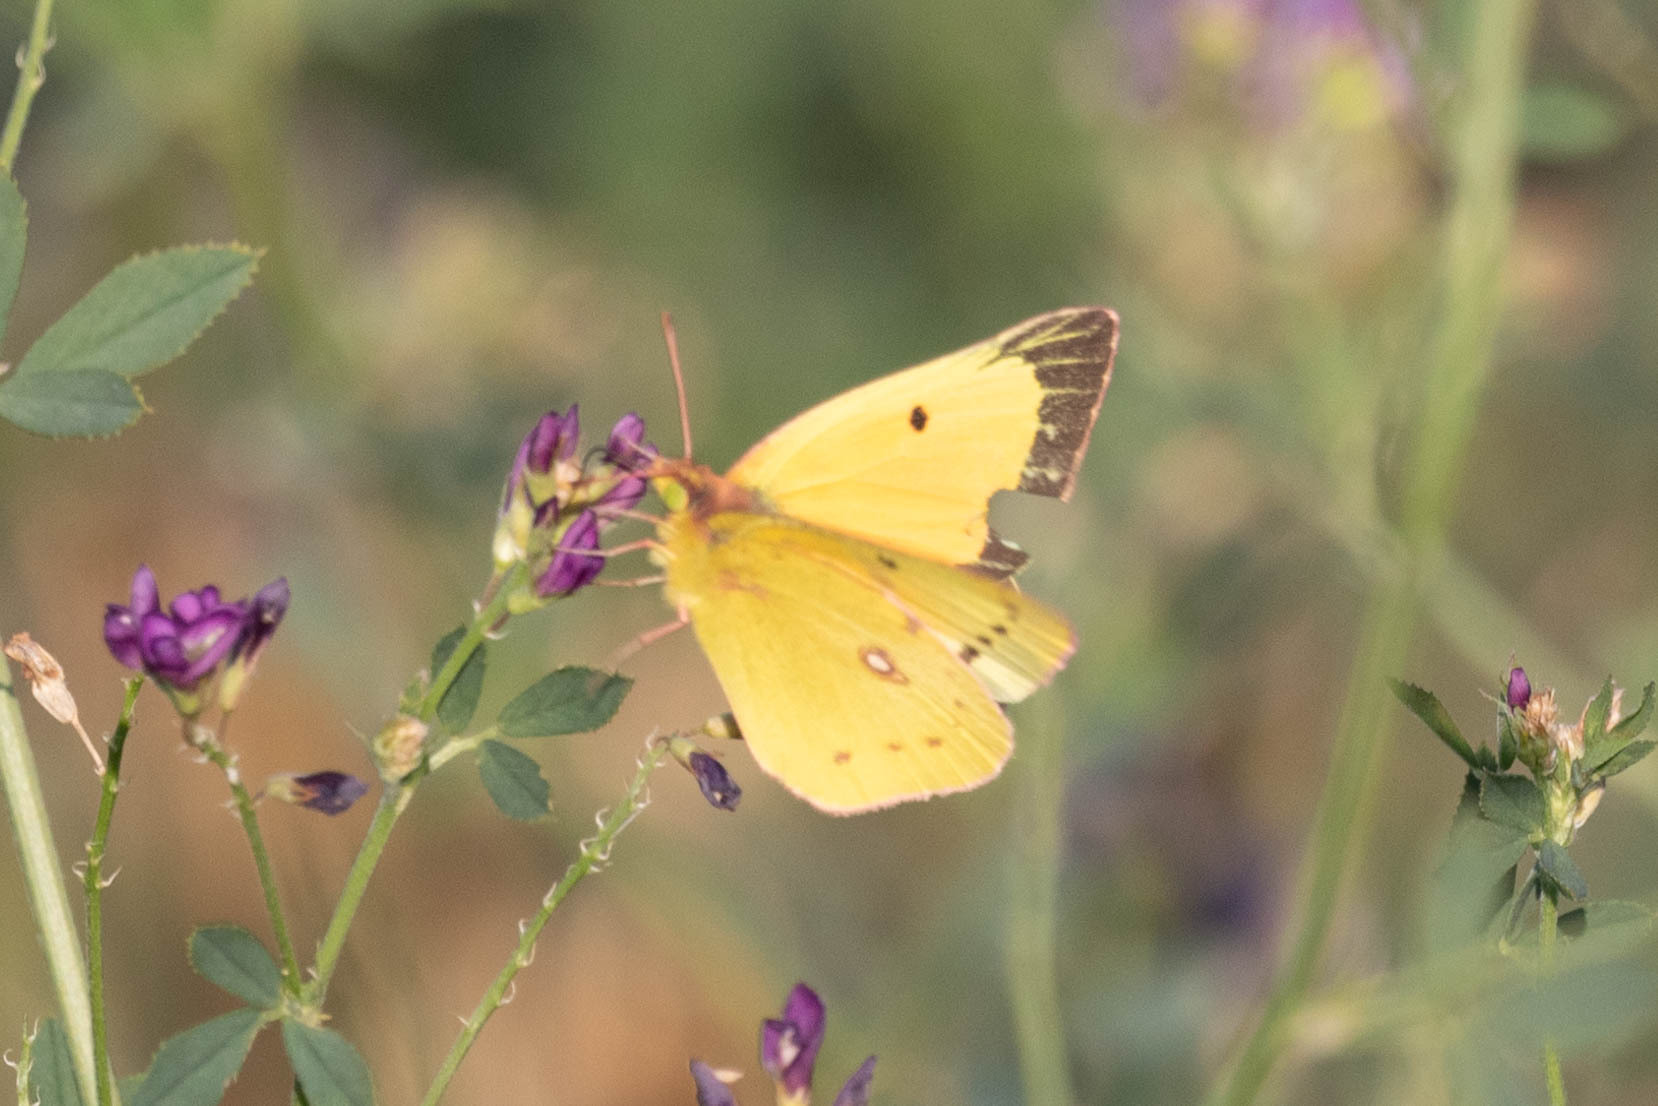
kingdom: Animalia
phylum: Arthropoda
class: Insecta
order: Lepidoptera
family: Pieridae
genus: Colias
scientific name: Colias eurytheme
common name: Alfalfa butterfly
